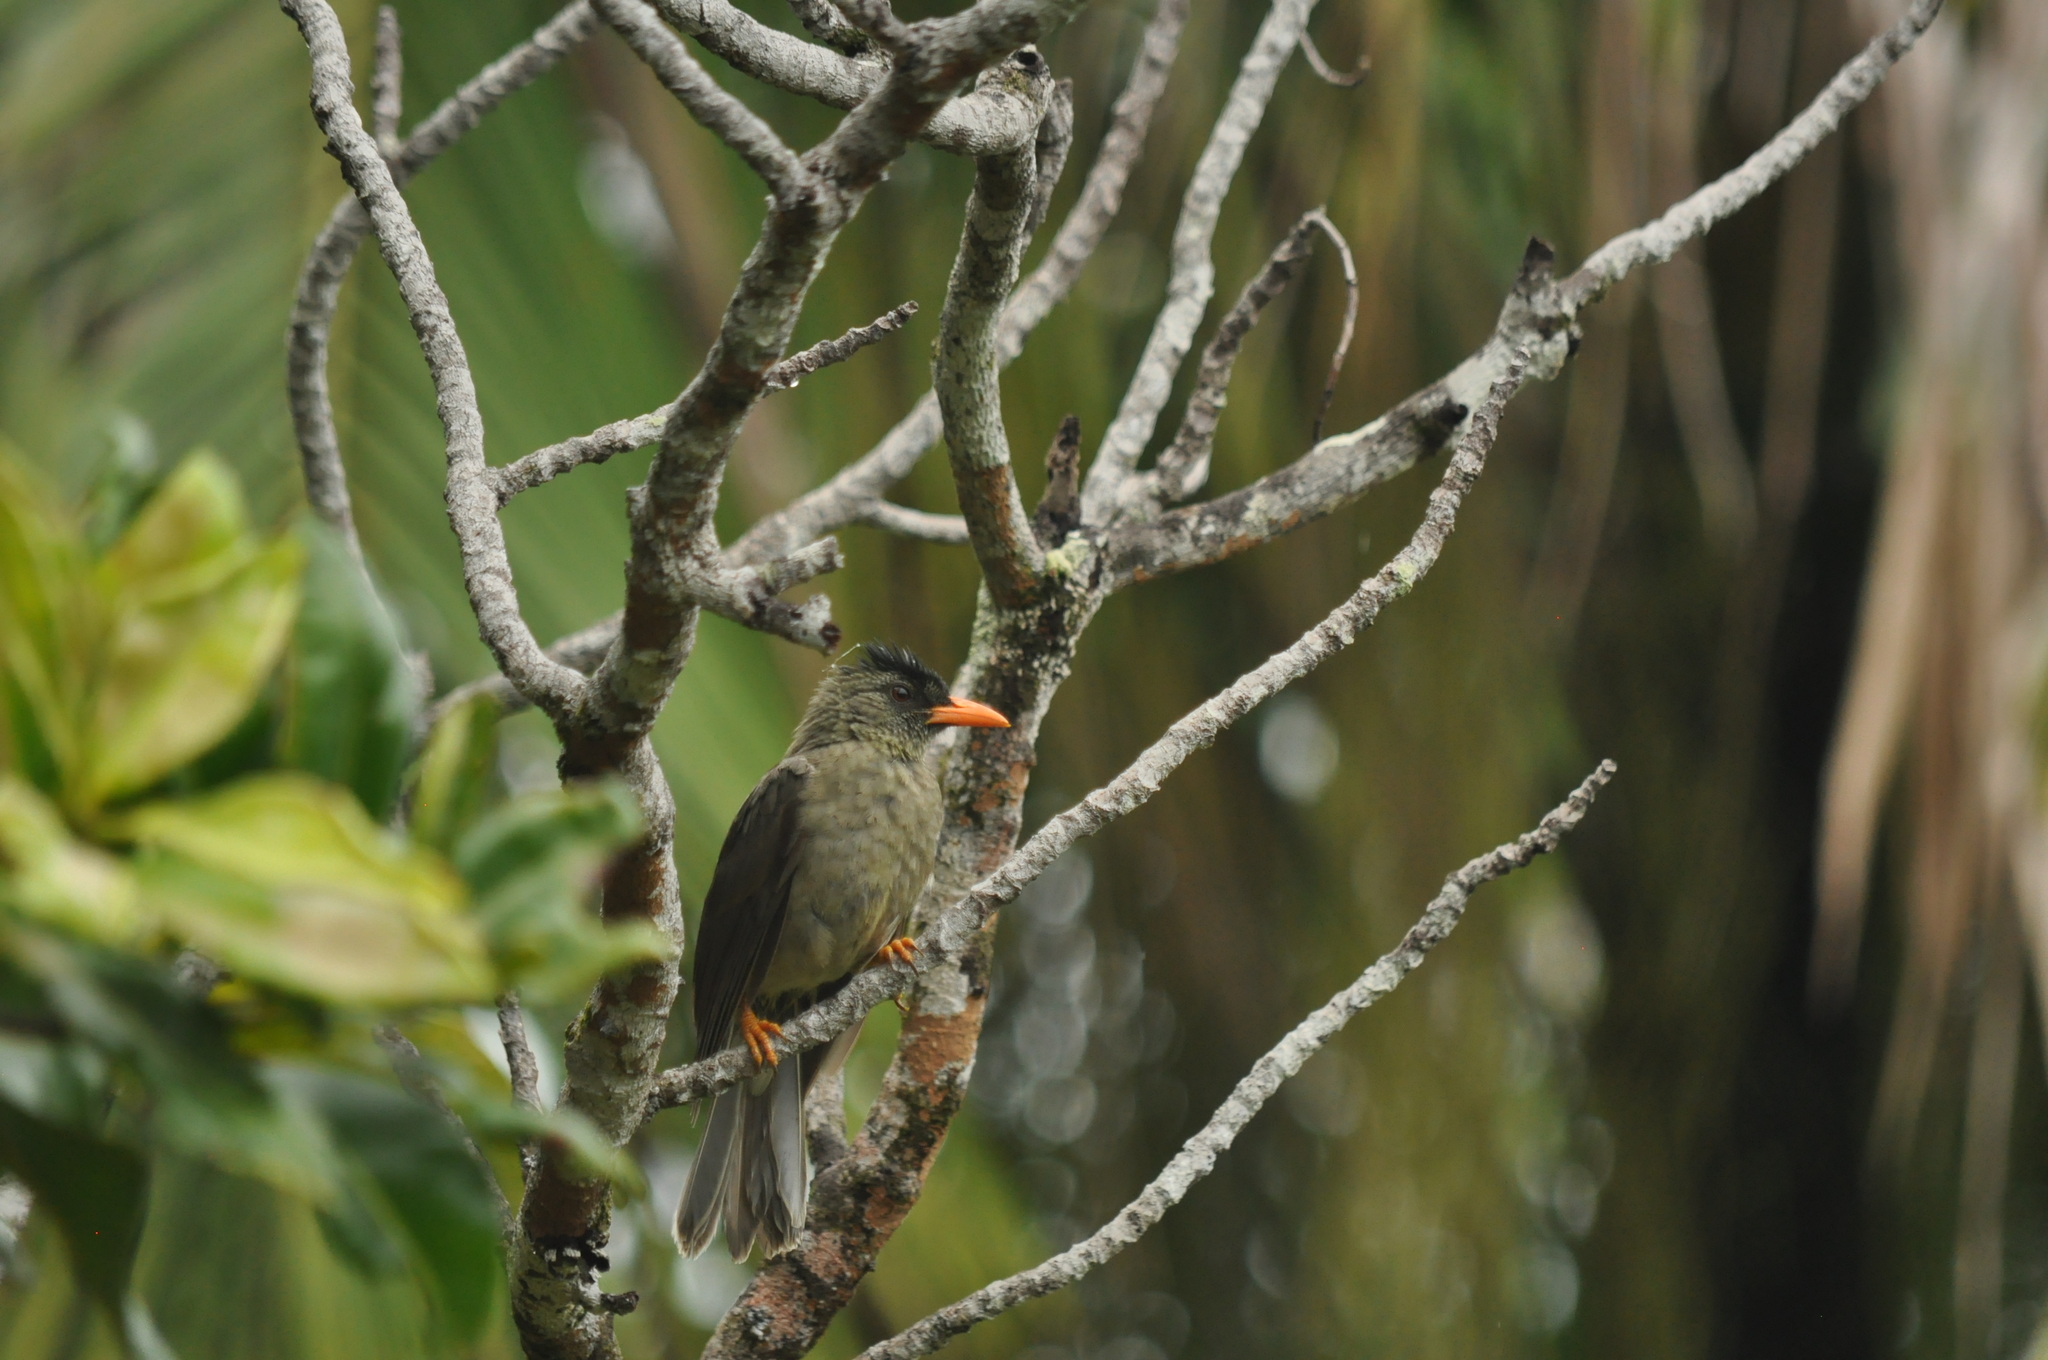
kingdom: Animalia
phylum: Chordata
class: Aves
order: Passeriformes
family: Pycnonotidae
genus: Hypsipetes
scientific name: Hypsipetes crassirostris
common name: Seychelles bulbul
